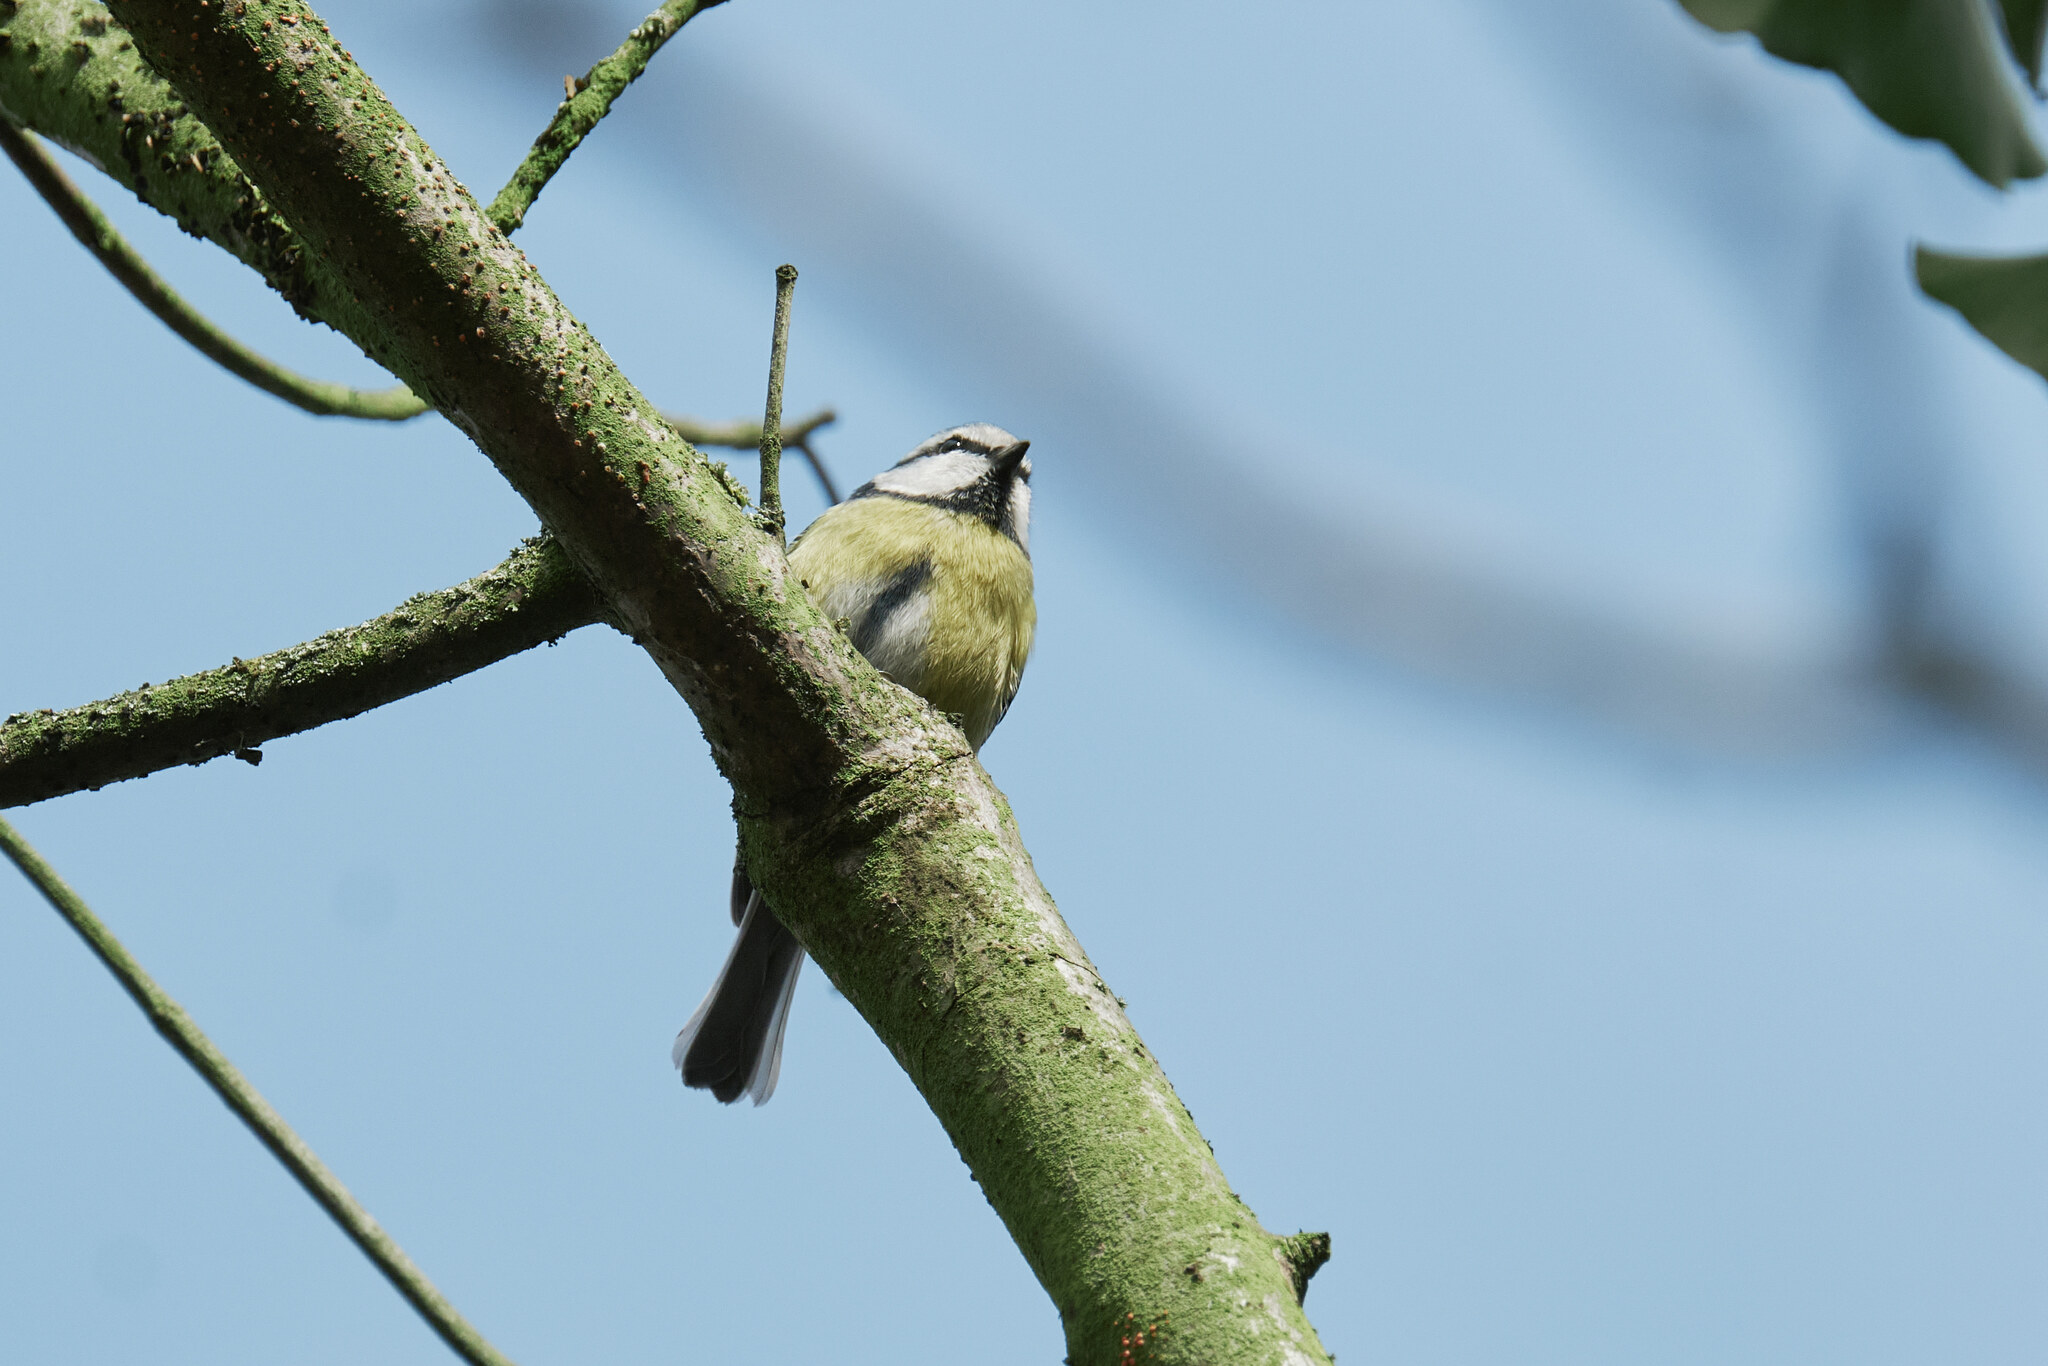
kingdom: Animalia
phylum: Chordata
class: Aves
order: Passeriformes
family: Paridae
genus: Cyanistes
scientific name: Cyanistes caeruleus
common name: Eurasian blue tit
